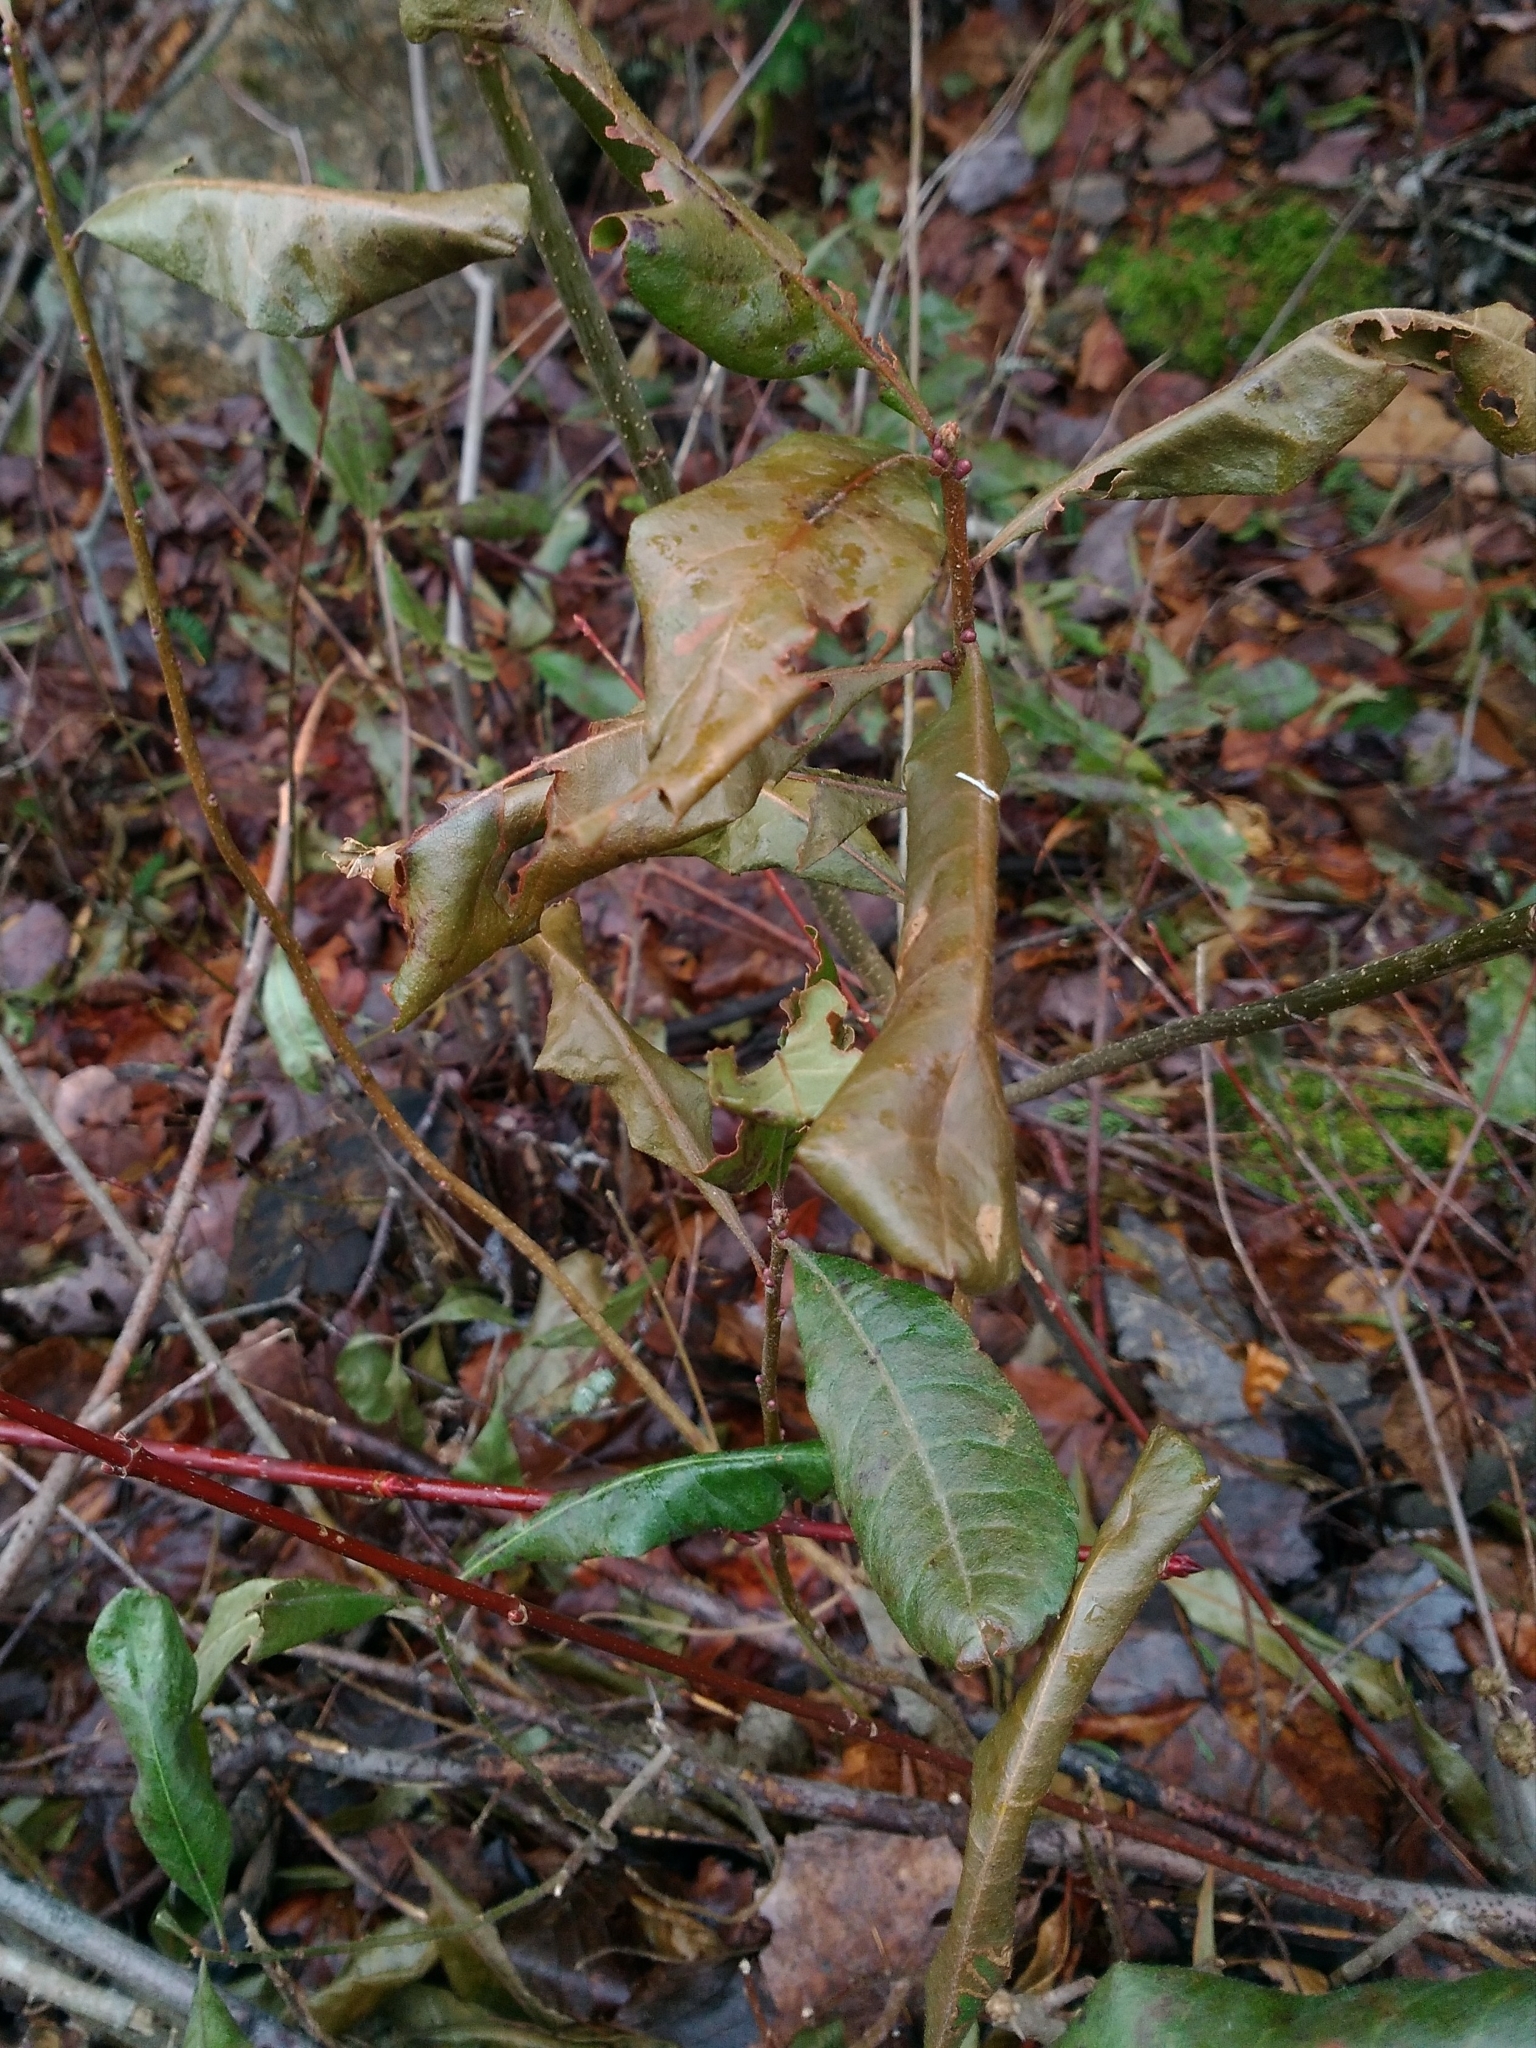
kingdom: Plantae
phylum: Tracheophyta
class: Magnoliopsida
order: Fagales
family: Myricaceae
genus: Morella
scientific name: Morella pensylvanica
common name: Northern bayberry
